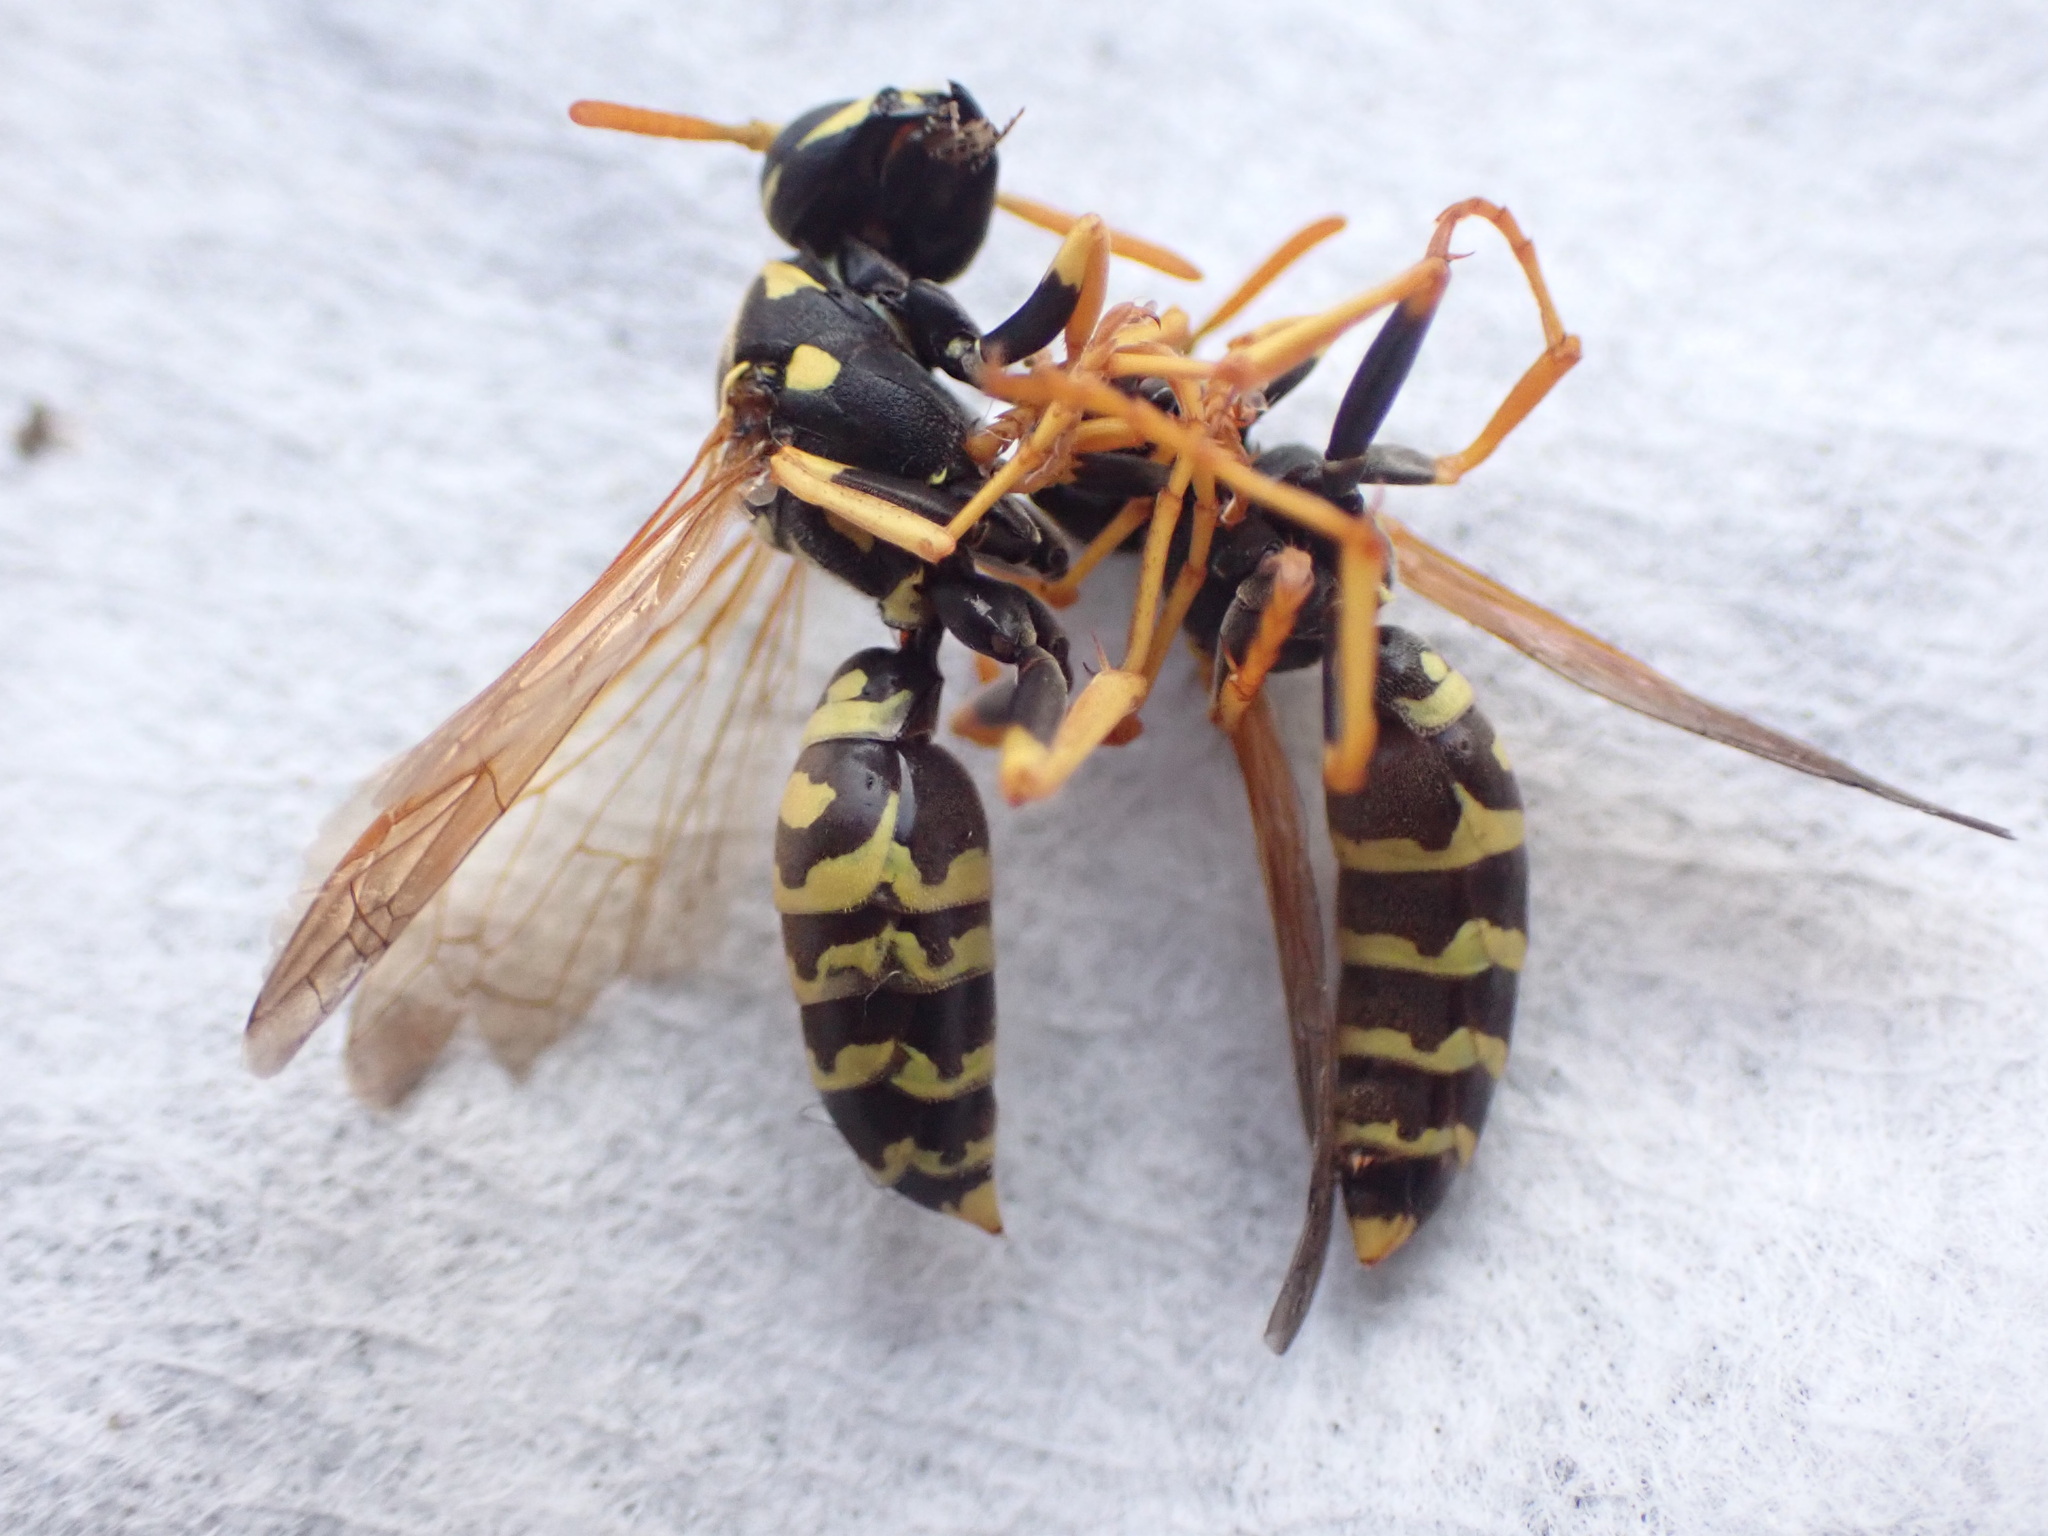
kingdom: Animalia
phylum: Arthropoda
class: Insecta
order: Hymenoptera
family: Eumenidae
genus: Polistes
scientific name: Polistes dominula
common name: Paper wasp
